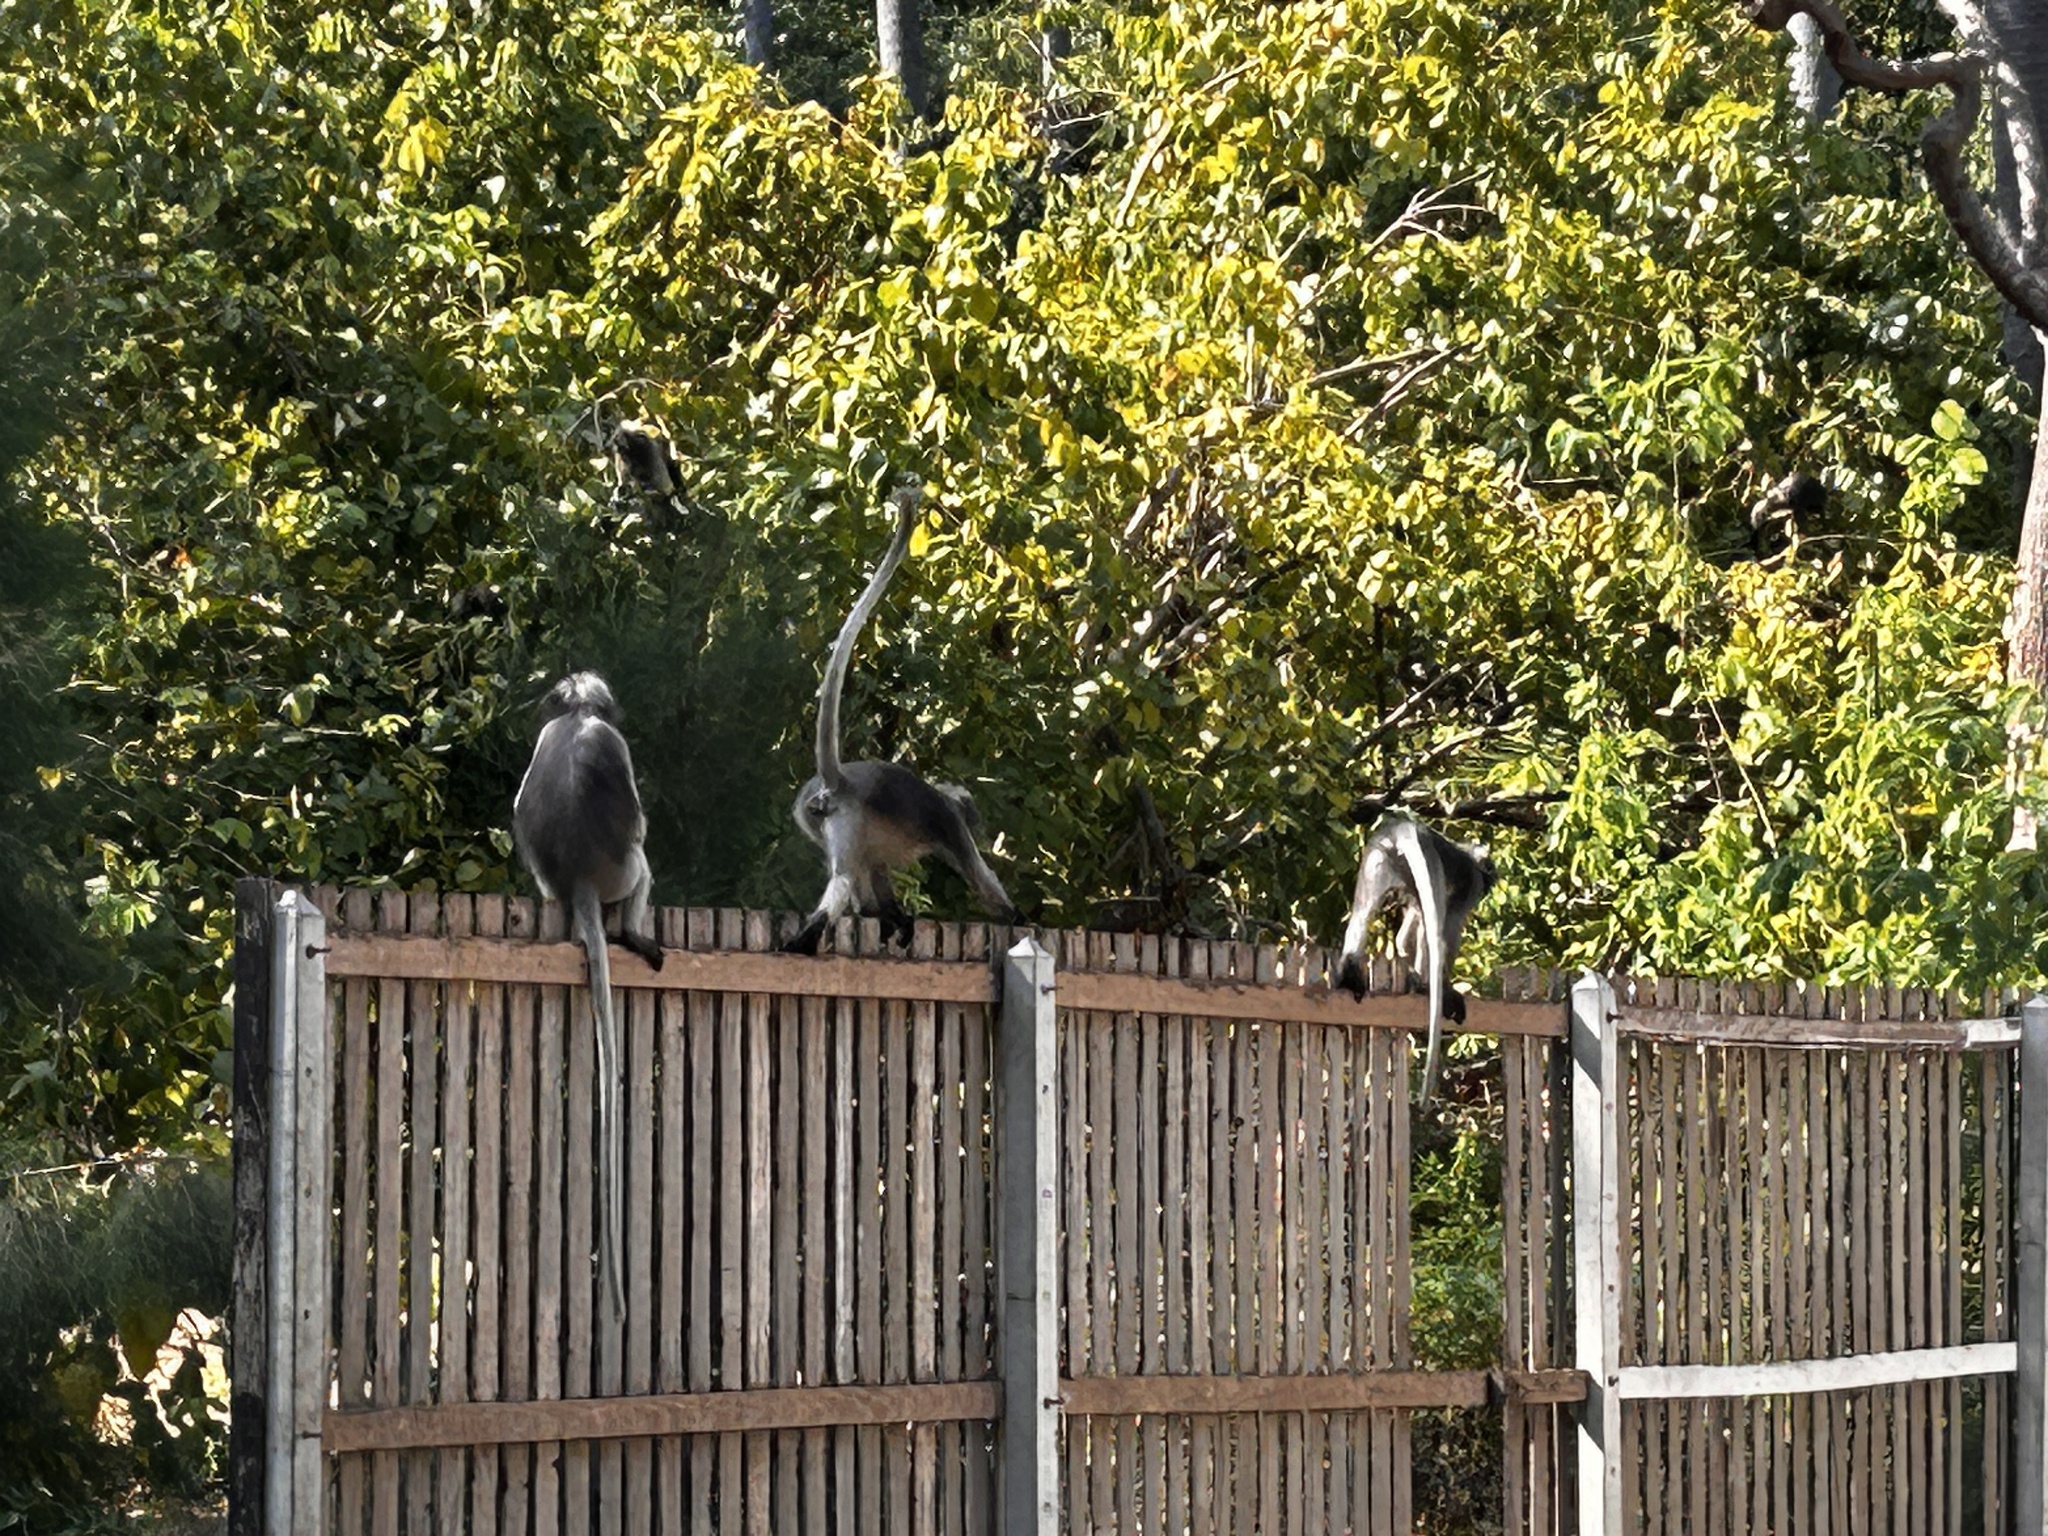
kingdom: Animalia
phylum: Chordata
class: Mammalia
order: Primates
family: Cercopithecidae
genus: Trachypithecus
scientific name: Trachypithecus obscurus
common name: Dusky leaf-monkey
